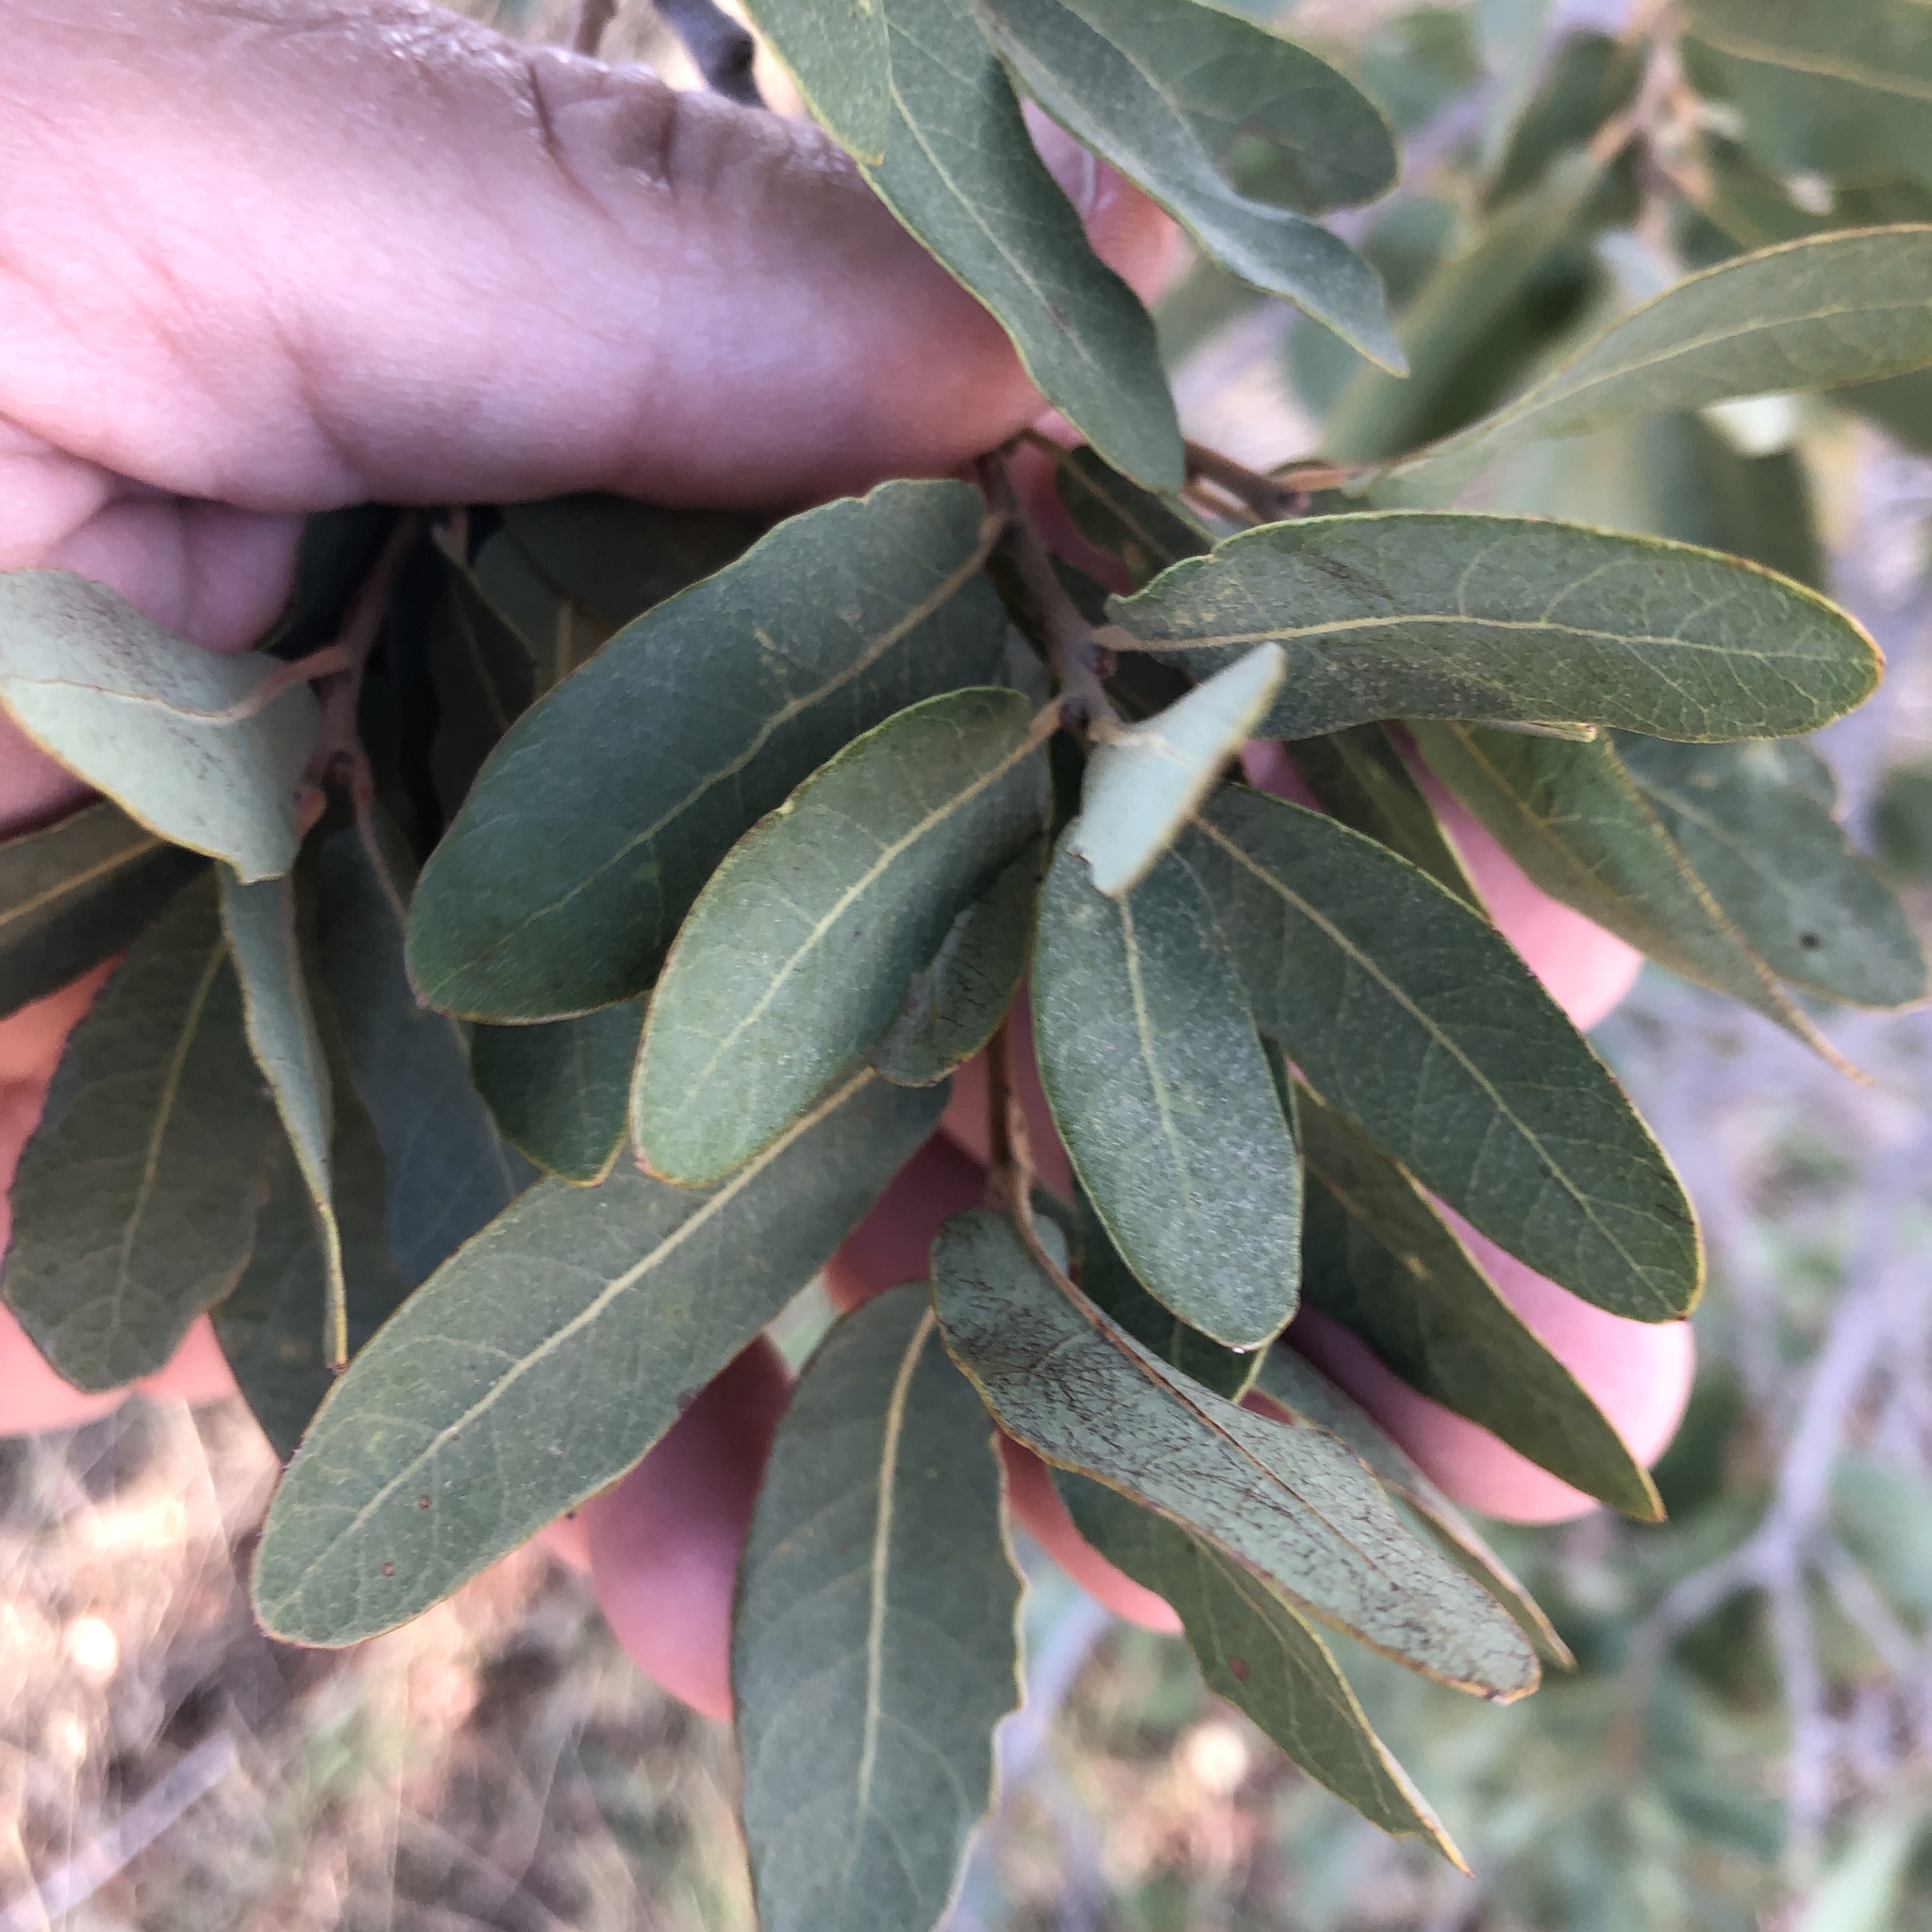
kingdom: Plantae
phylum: Tracheophyta
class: Magnoliopsida
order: Fagales
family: Fagaceae
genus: Quercus
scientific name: Quercus engelmannii
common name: Engelmann oak
